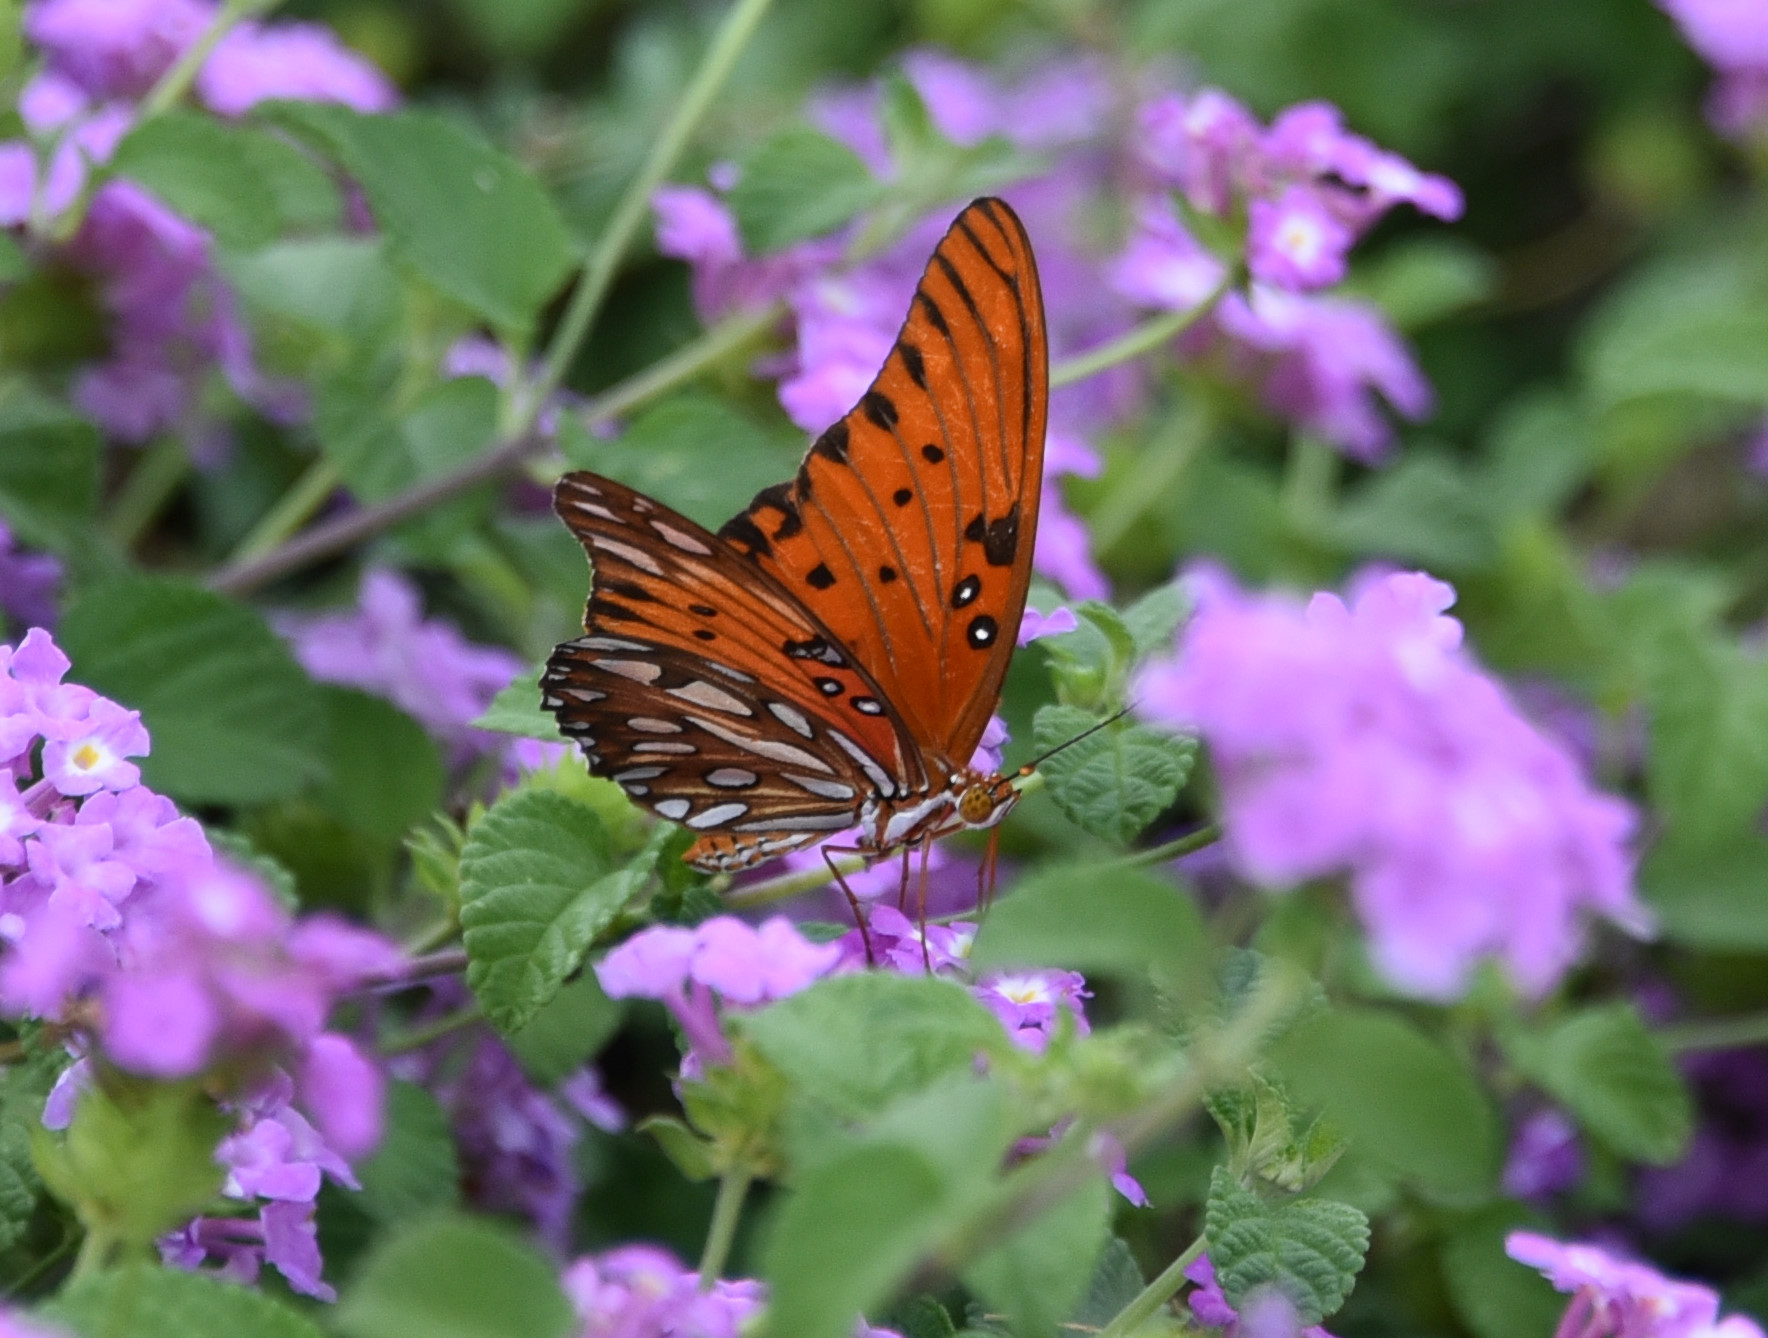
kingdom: Animalia
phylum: Arthropoda
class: Insecta
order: Lepidoptera
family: Nymphalidae
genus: Dione
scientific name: Dione vanillae
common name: Gulf fritillary
